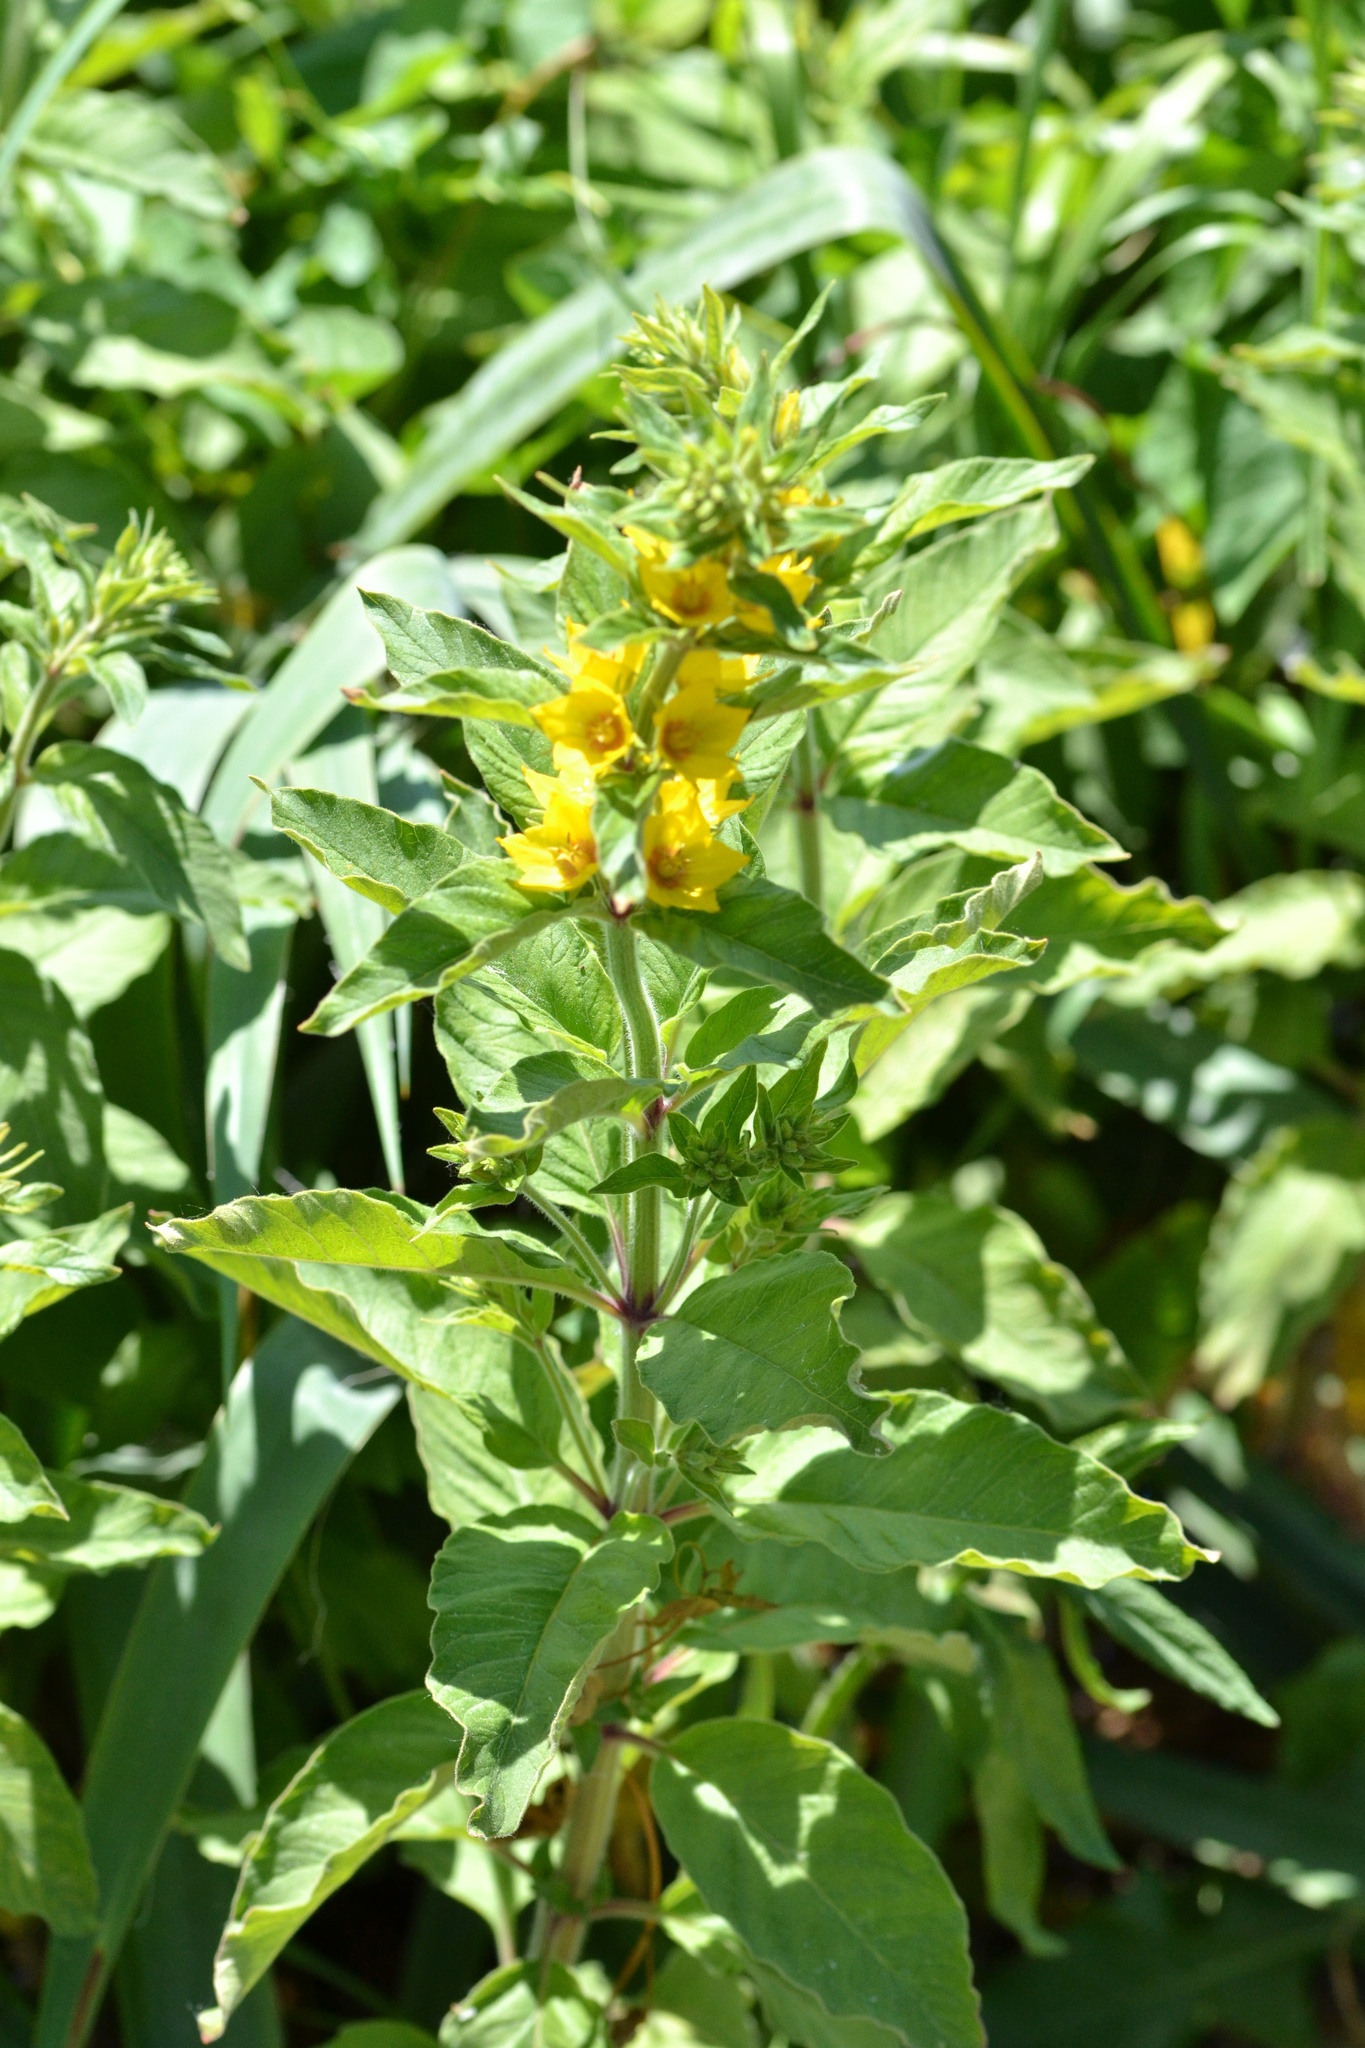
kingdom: Plantae
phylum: Tracheophyta
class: Magnoliopsida
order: Ericales
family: Primulaceae
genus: Lysimachia
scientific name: Lysimachia punctata
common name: Dotted loosestrife
